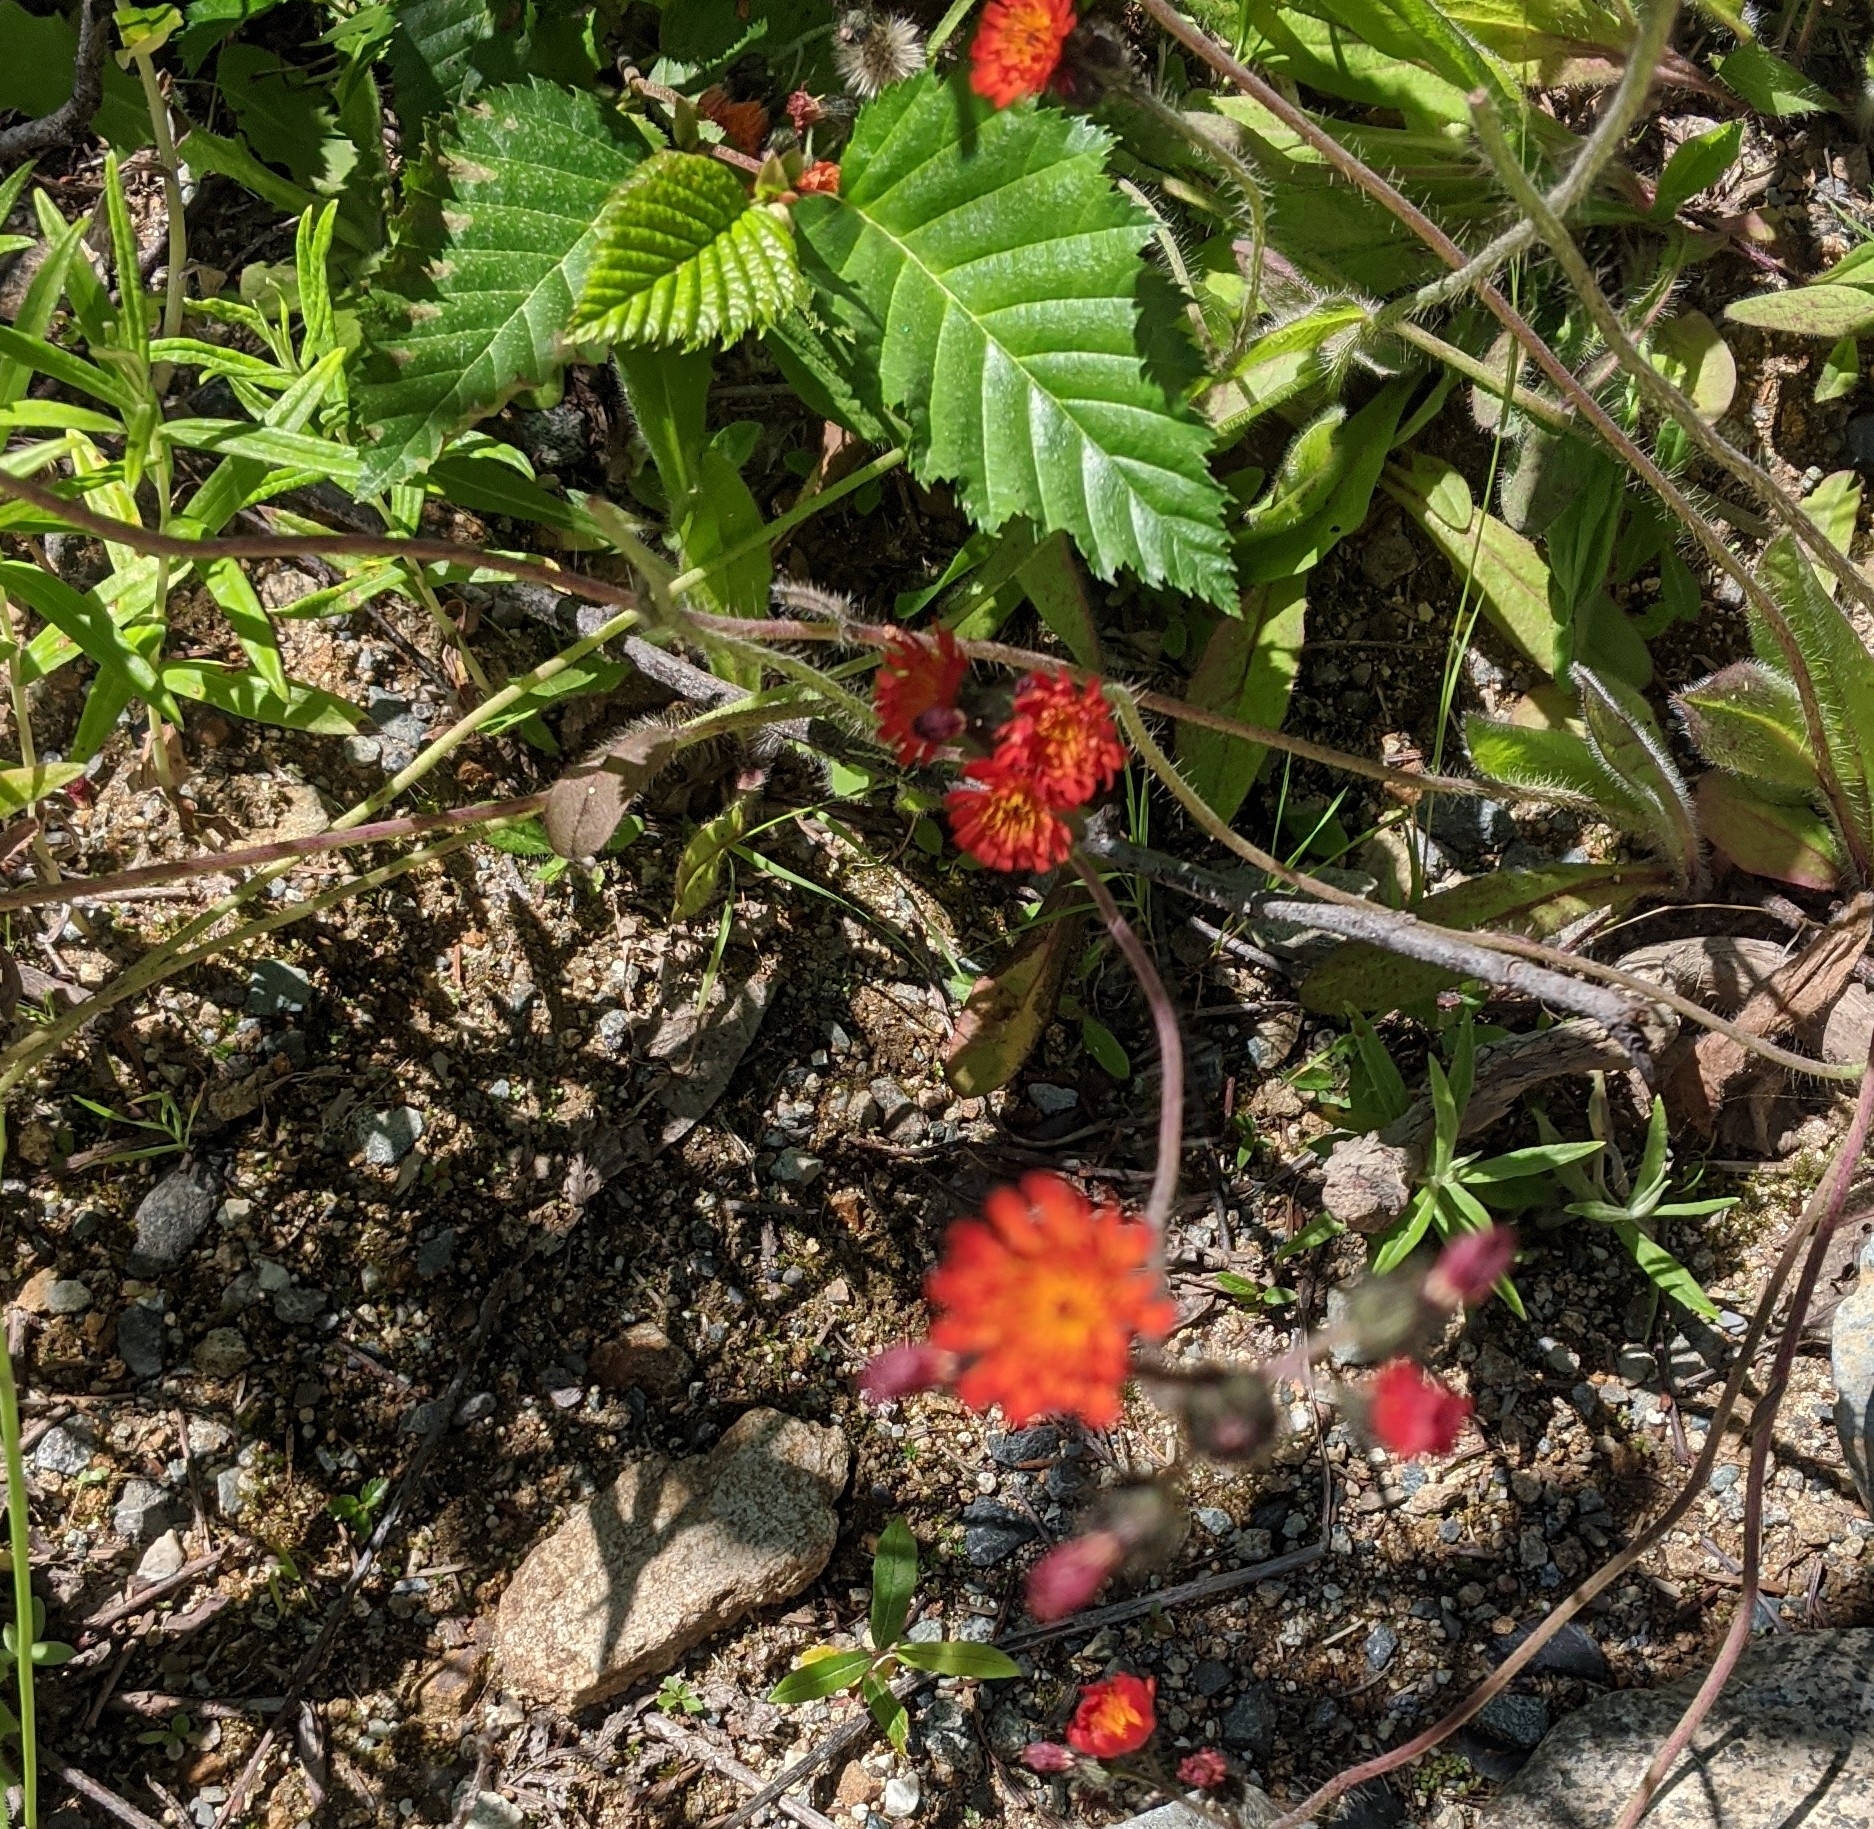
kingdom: Plantae
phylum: Tracheophyta
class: Magnoliopsida
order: Asterales
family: Asteraceae
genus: Pilosella
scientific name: Pilosella aurantiaca
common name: Fox-and-cubs
